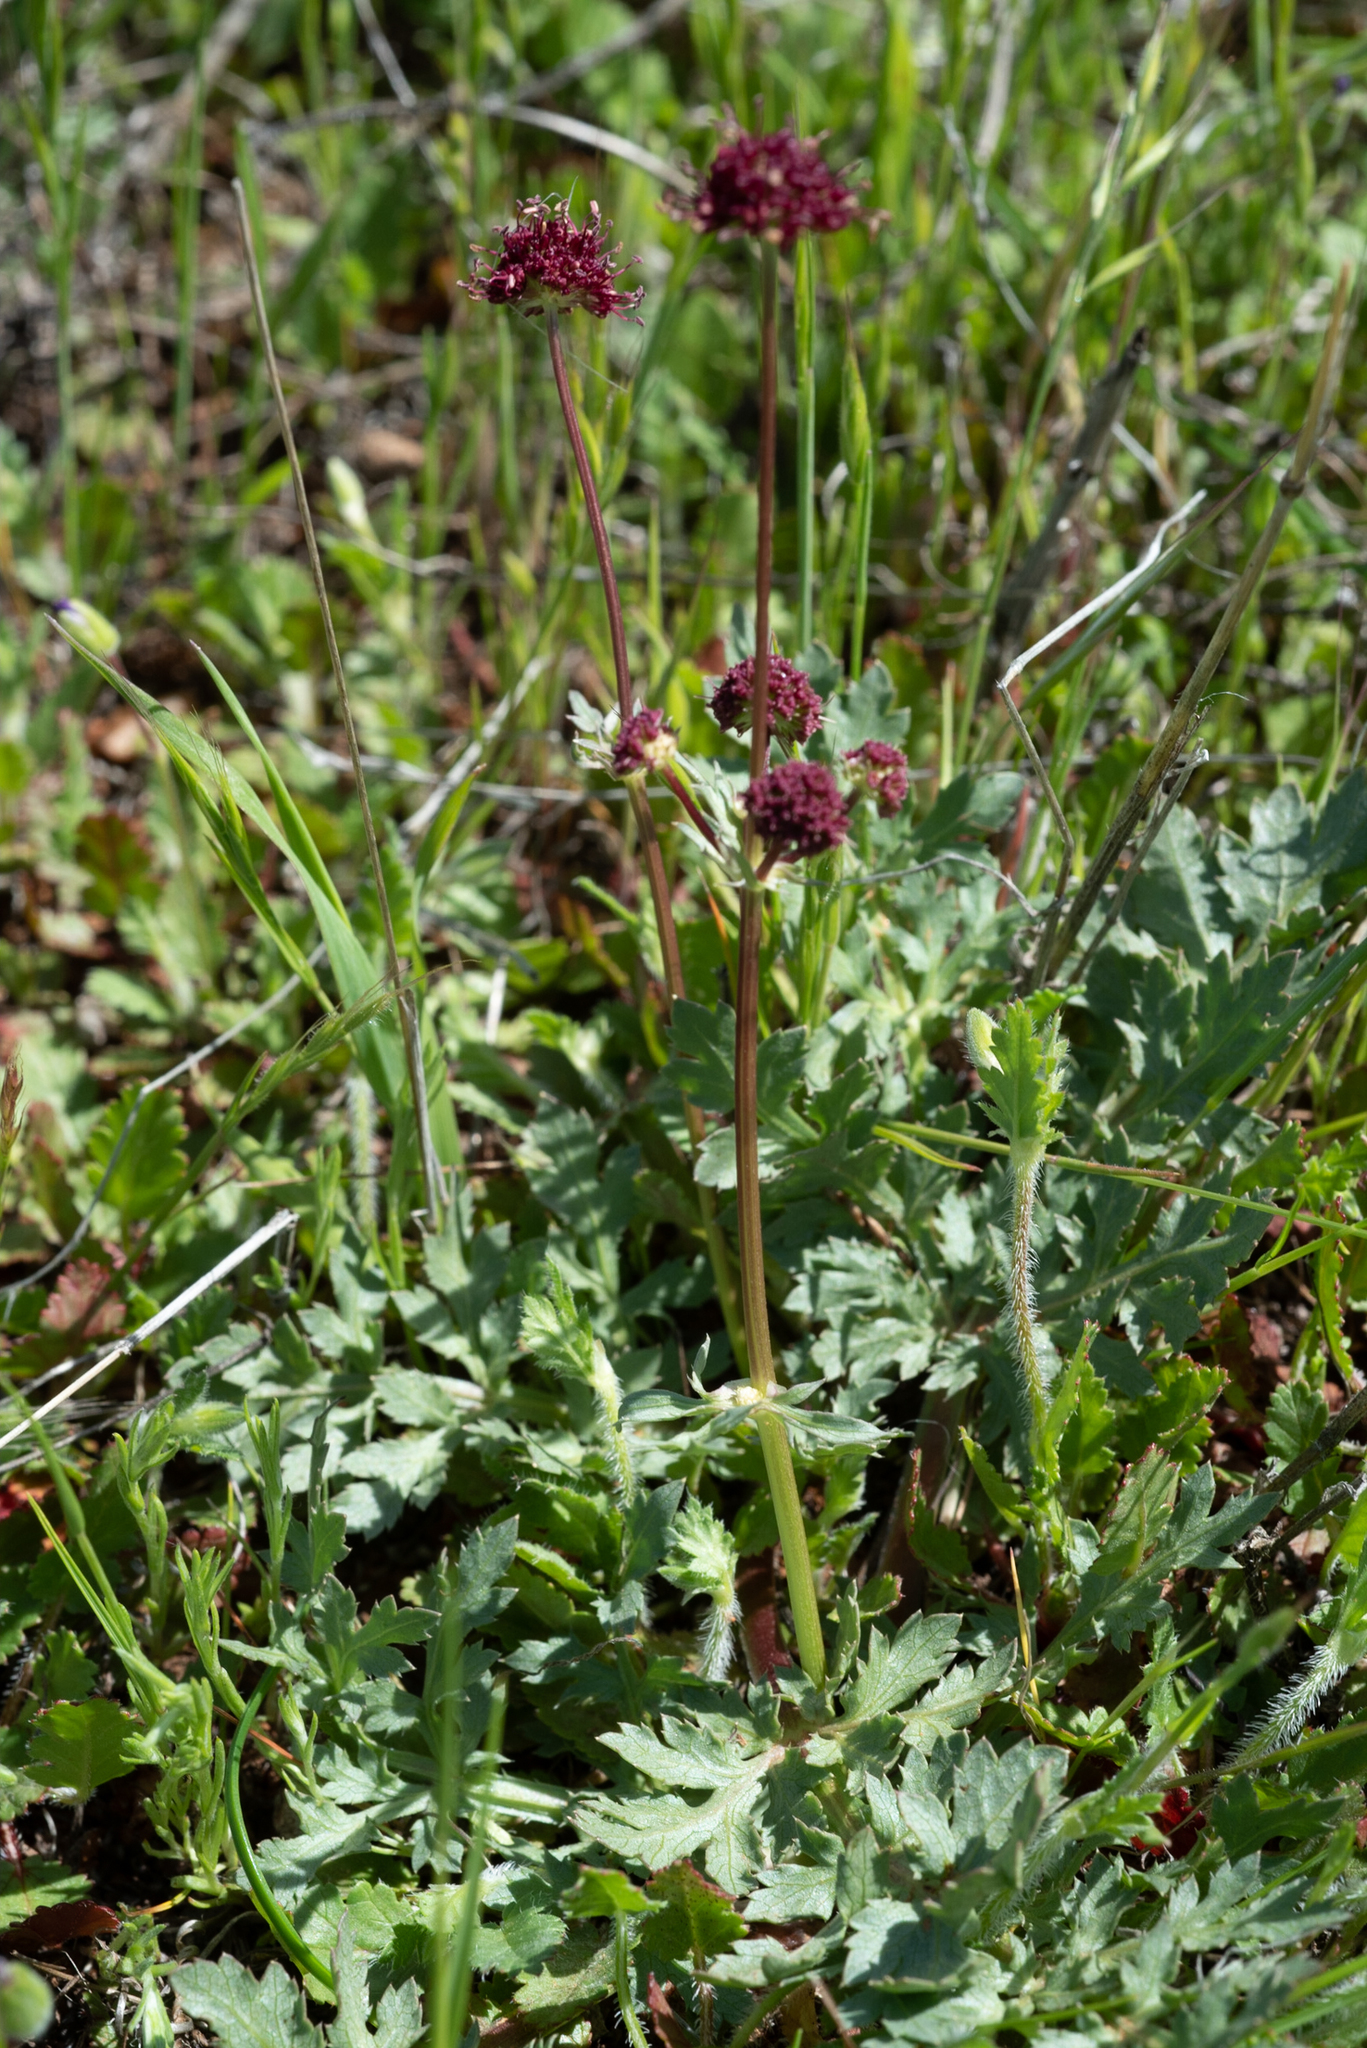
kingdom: Plantae
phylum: Tracheophyta
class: Magnoliopsida
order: Apiales
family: Apiaceae
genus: Sanicula
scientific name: Sanicula bipinnatifida
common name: Shoe-buttons
